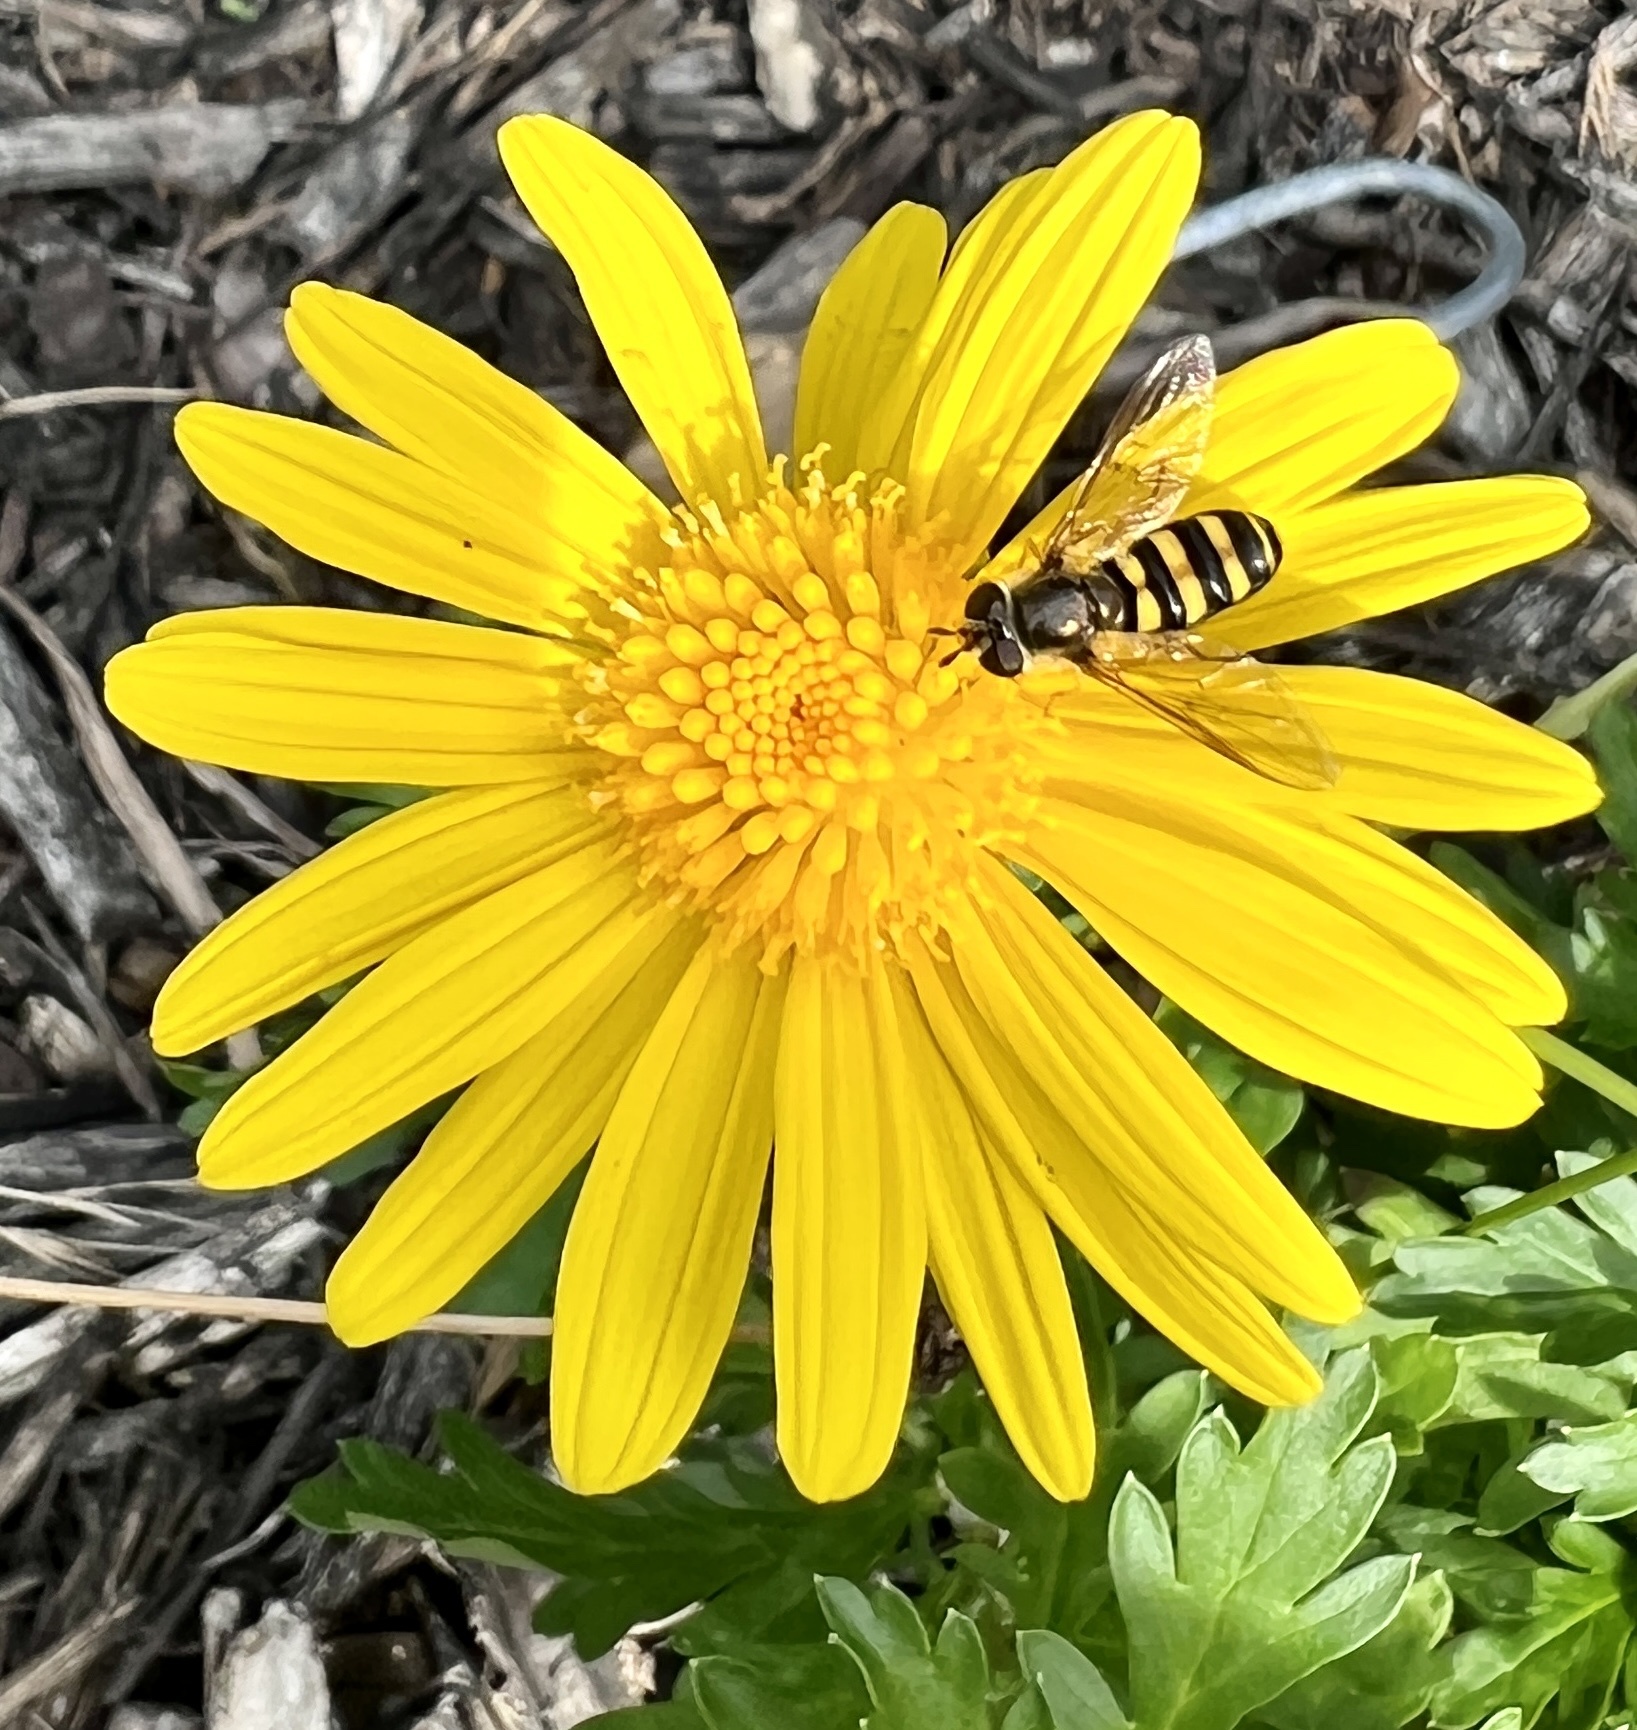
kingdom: Animalia
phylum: Arthropoda
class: Insecta
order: Diptera
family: Syrphidae
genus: Eupeodes
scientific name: Eupeodes
